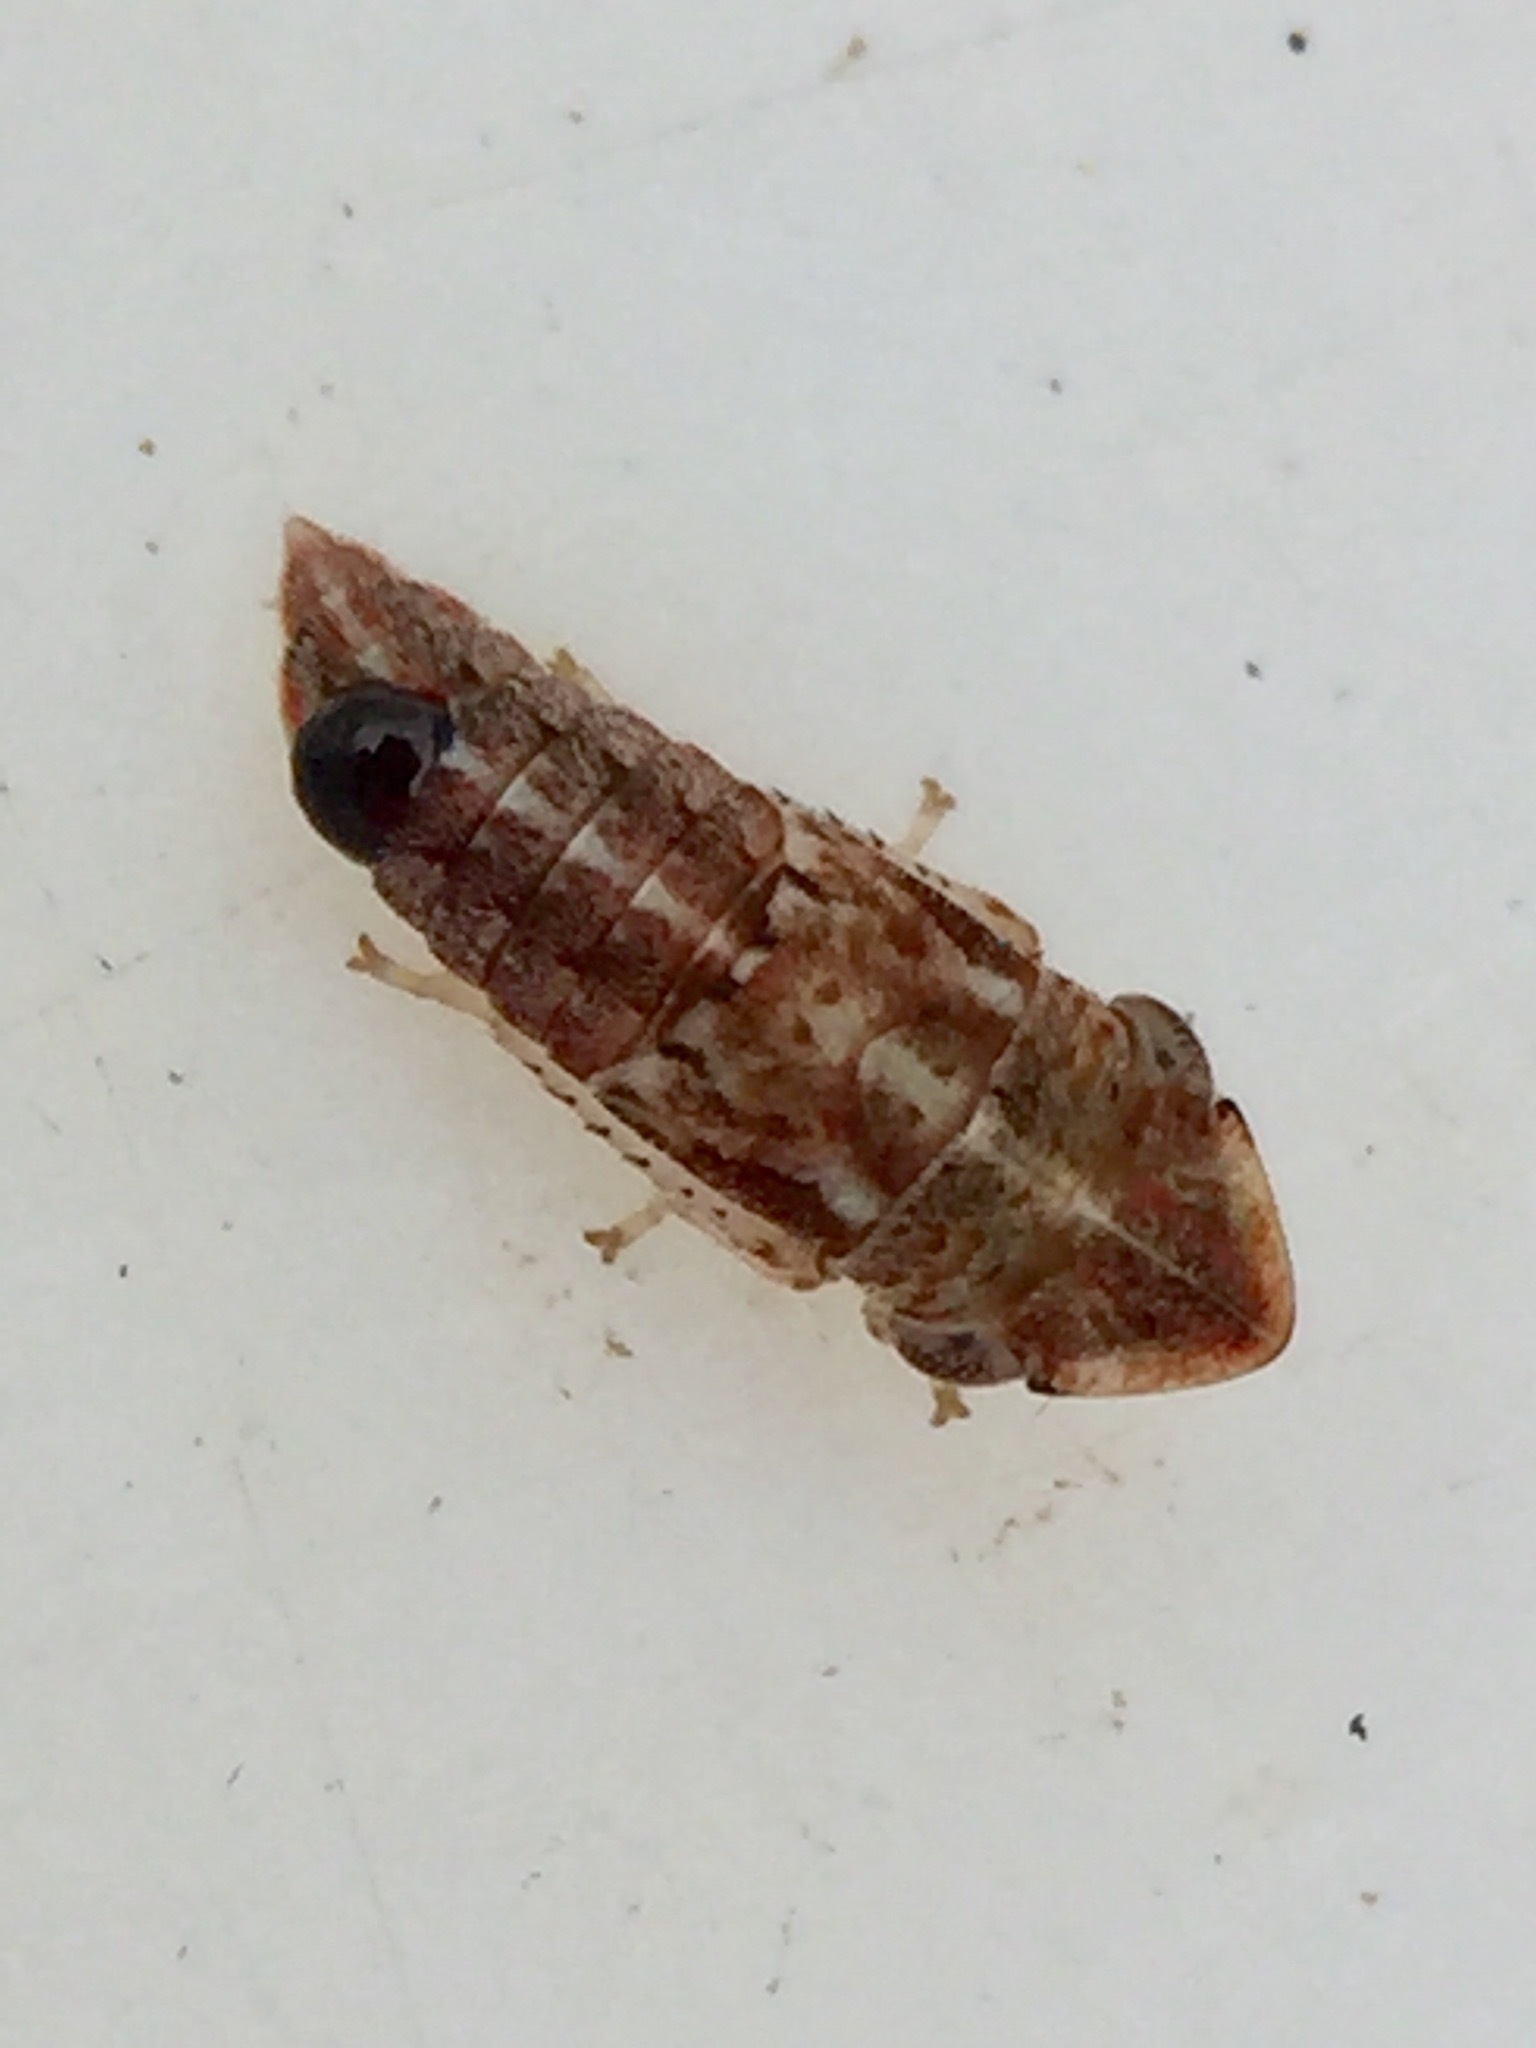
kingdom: Animalia
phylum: Arthropoda
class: Insecta
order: Strepsiptera
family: Halictophagidae
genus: Coriophagus
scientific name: Coriophagus casui
